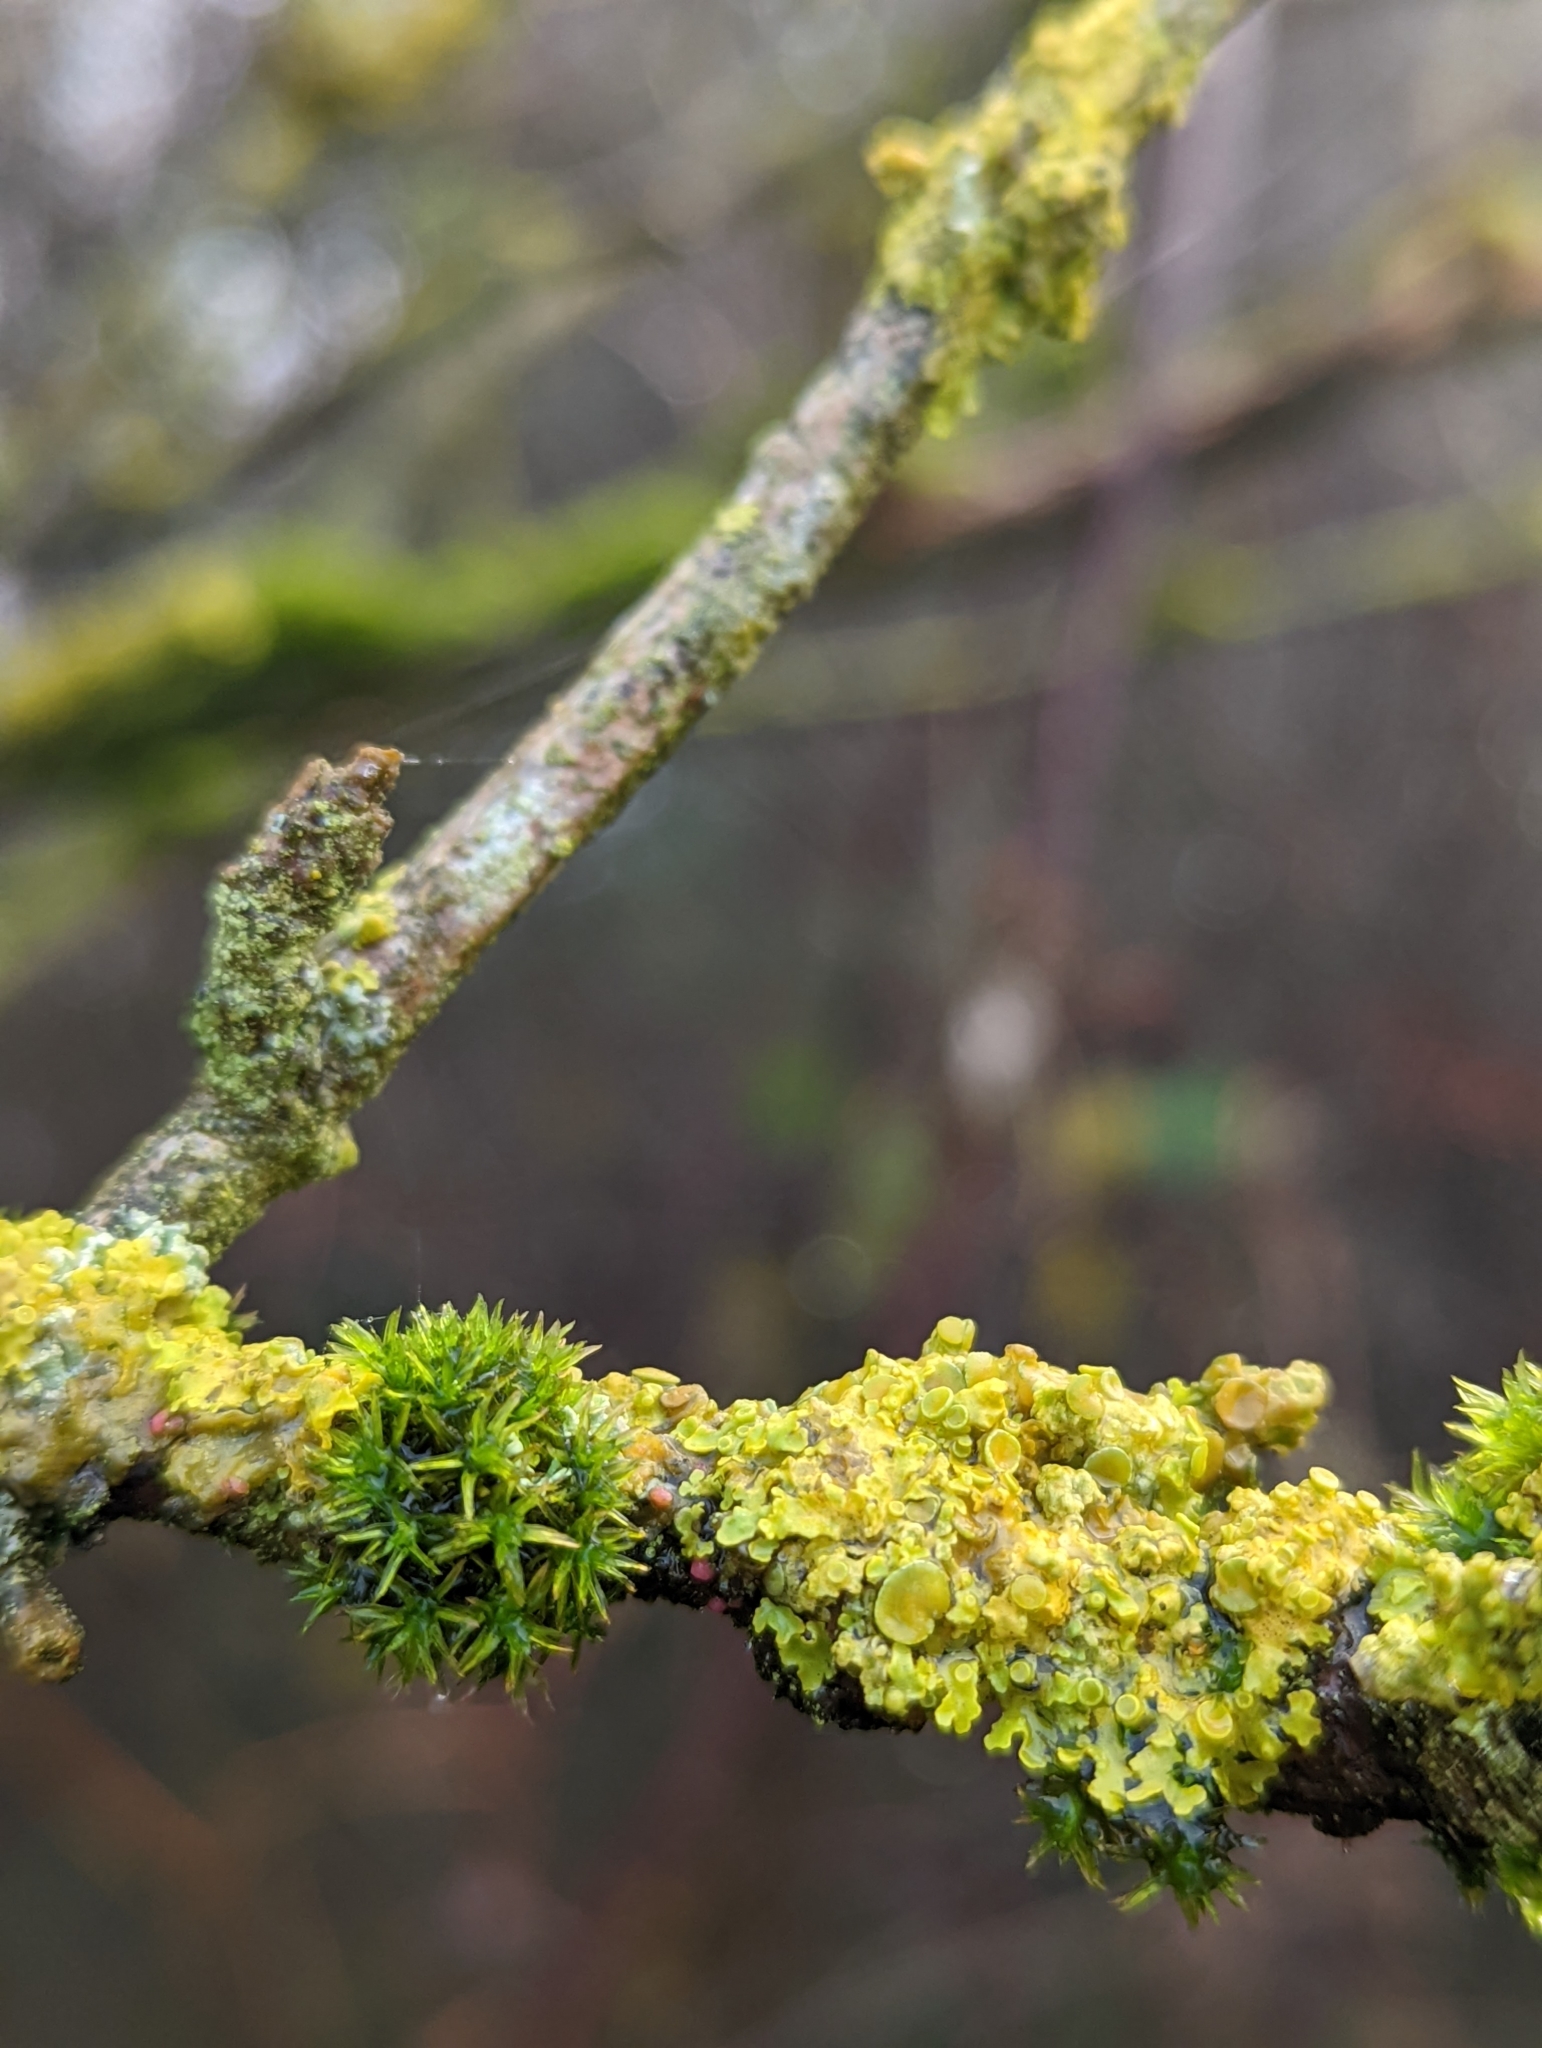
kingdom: Fungi
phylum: Ascomycota
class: Lecanoromycetes
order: Teloschistales
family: Teloschistaceae
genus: Xanthoria
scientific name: Xanthoria parietina
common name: Common orange lichen
